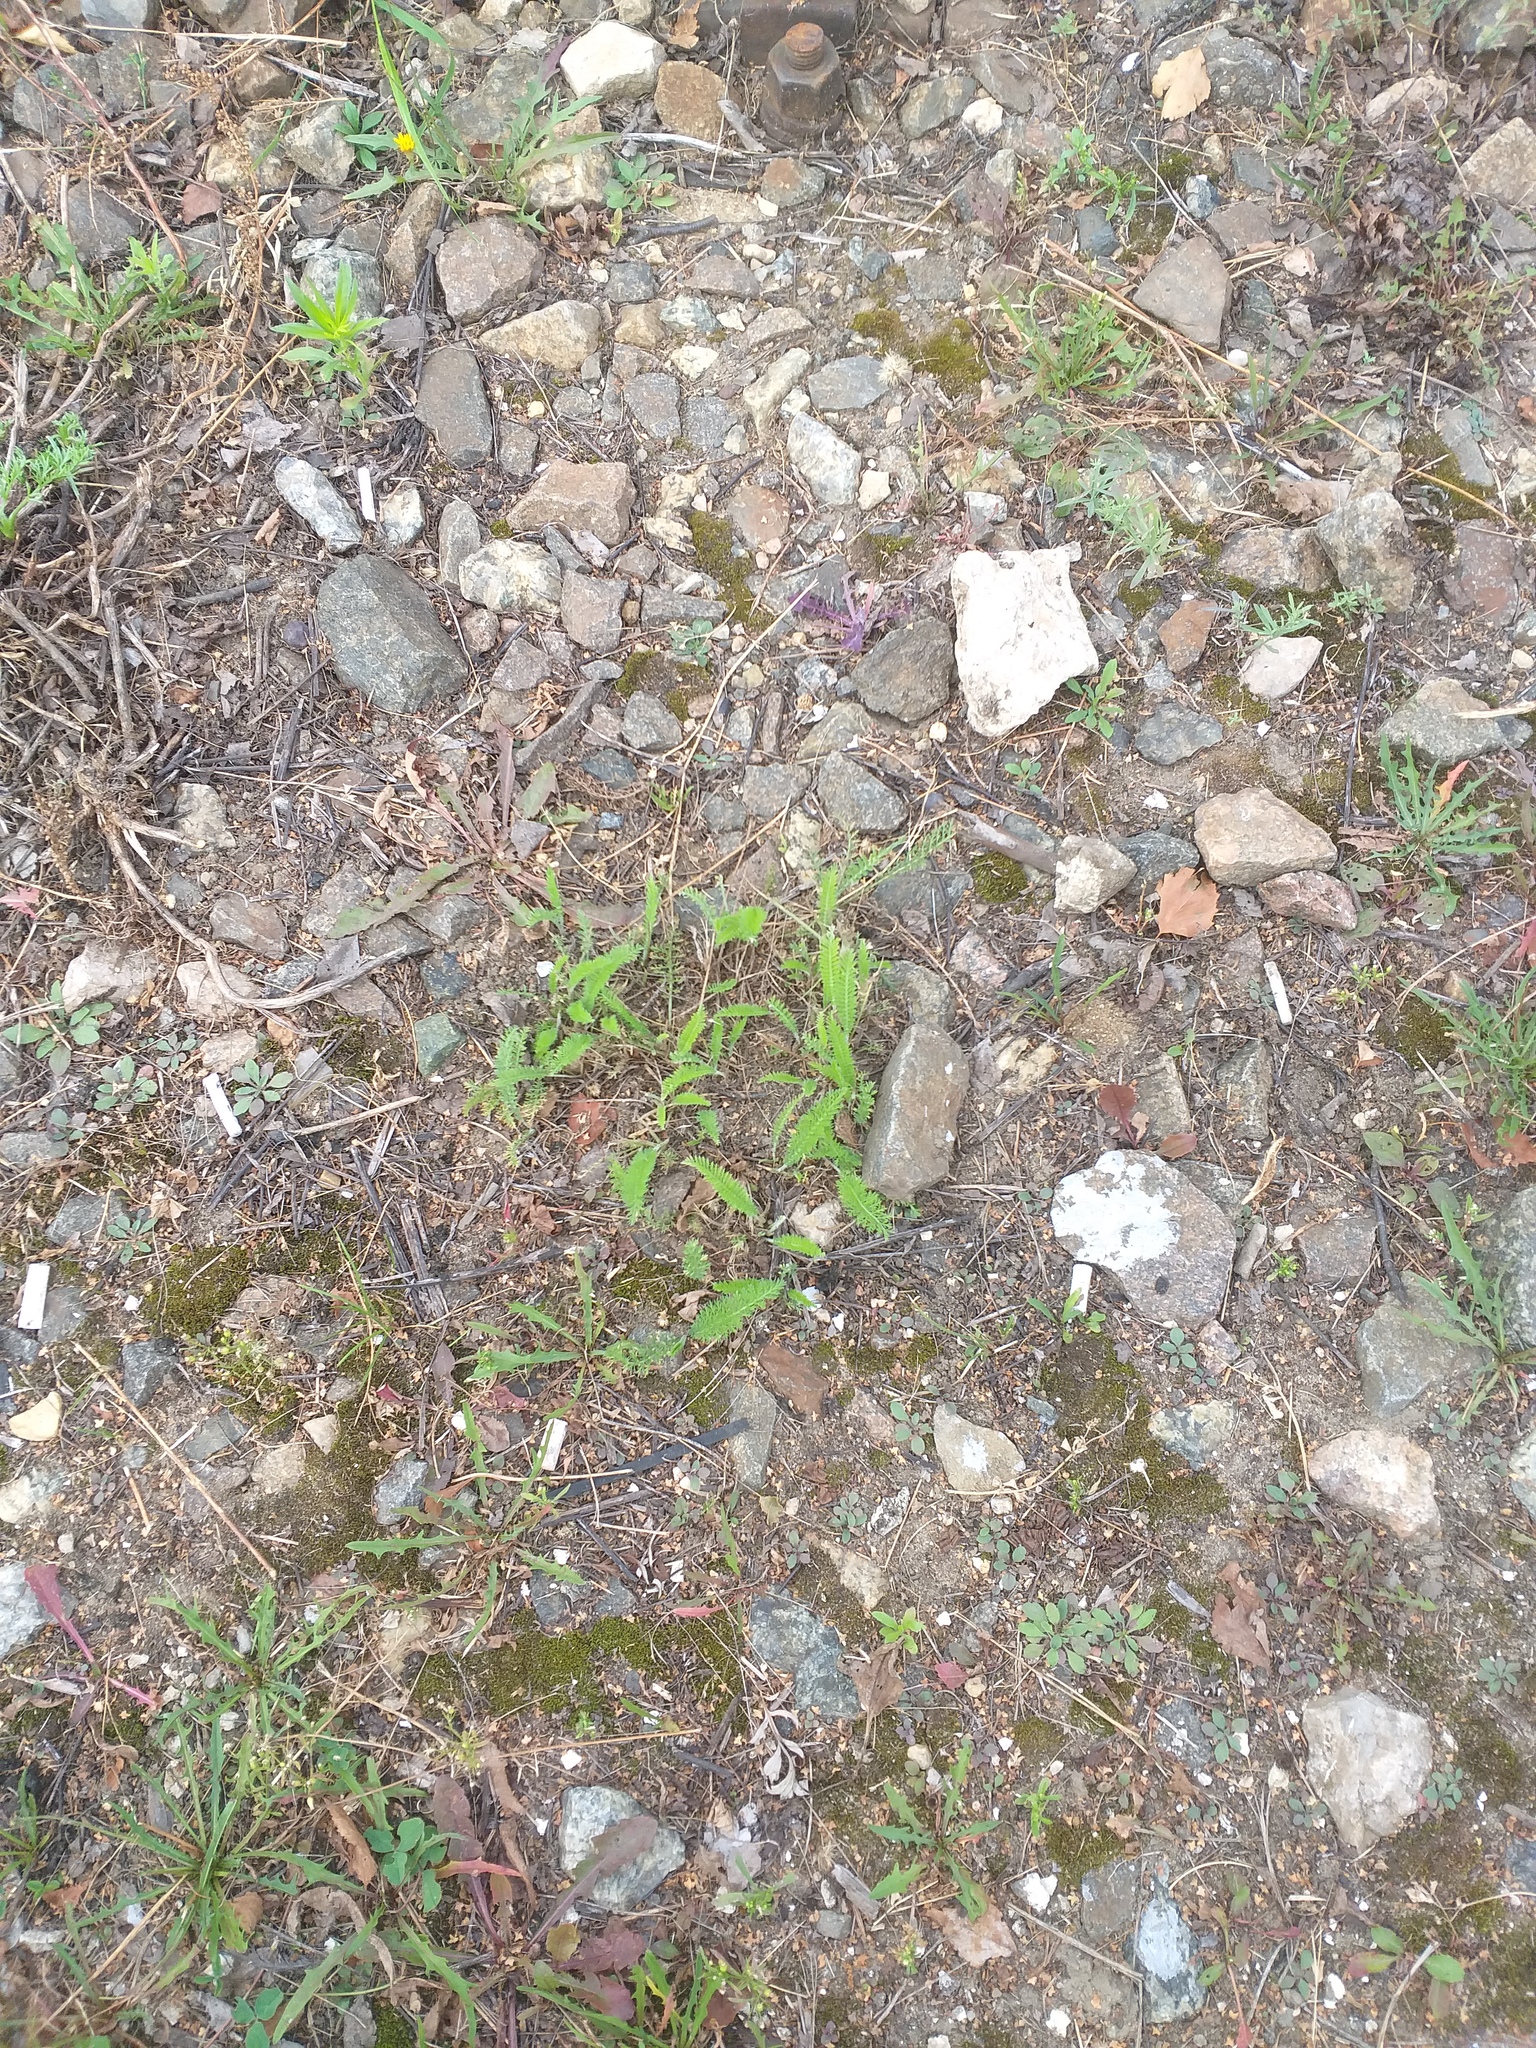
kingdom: Plantae
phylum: Tracheophyta
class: Magnoliopsida
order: Asterales
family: Asteraceae
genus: Achillea
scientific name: Achillea millefolium
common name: Yarrow
